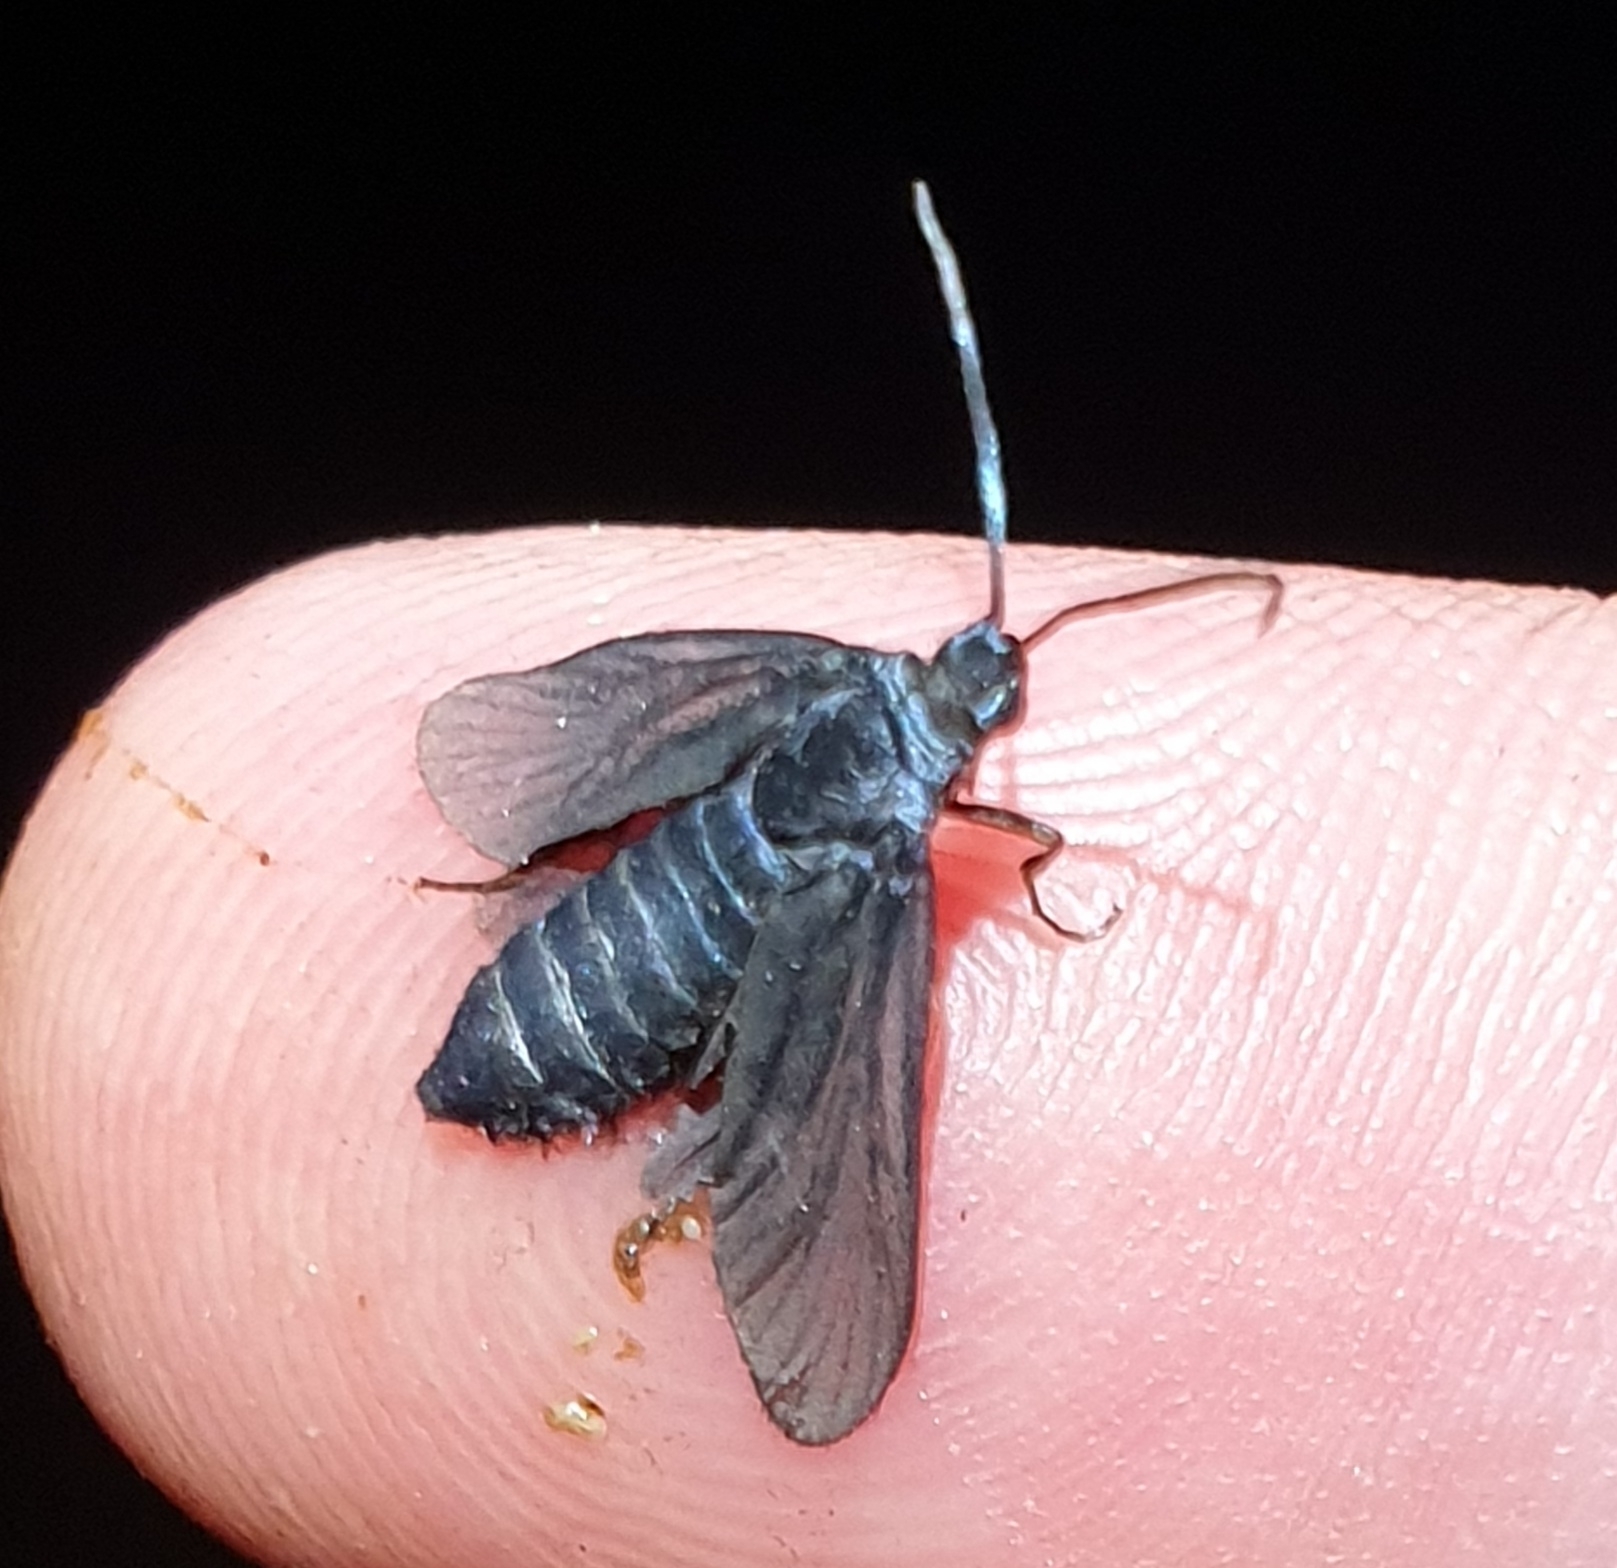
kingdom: Animalia
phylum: Arthropoda
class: Insecta
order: Lepidoptera
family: Zygaenidae
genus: Artona
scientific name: Artona martini
